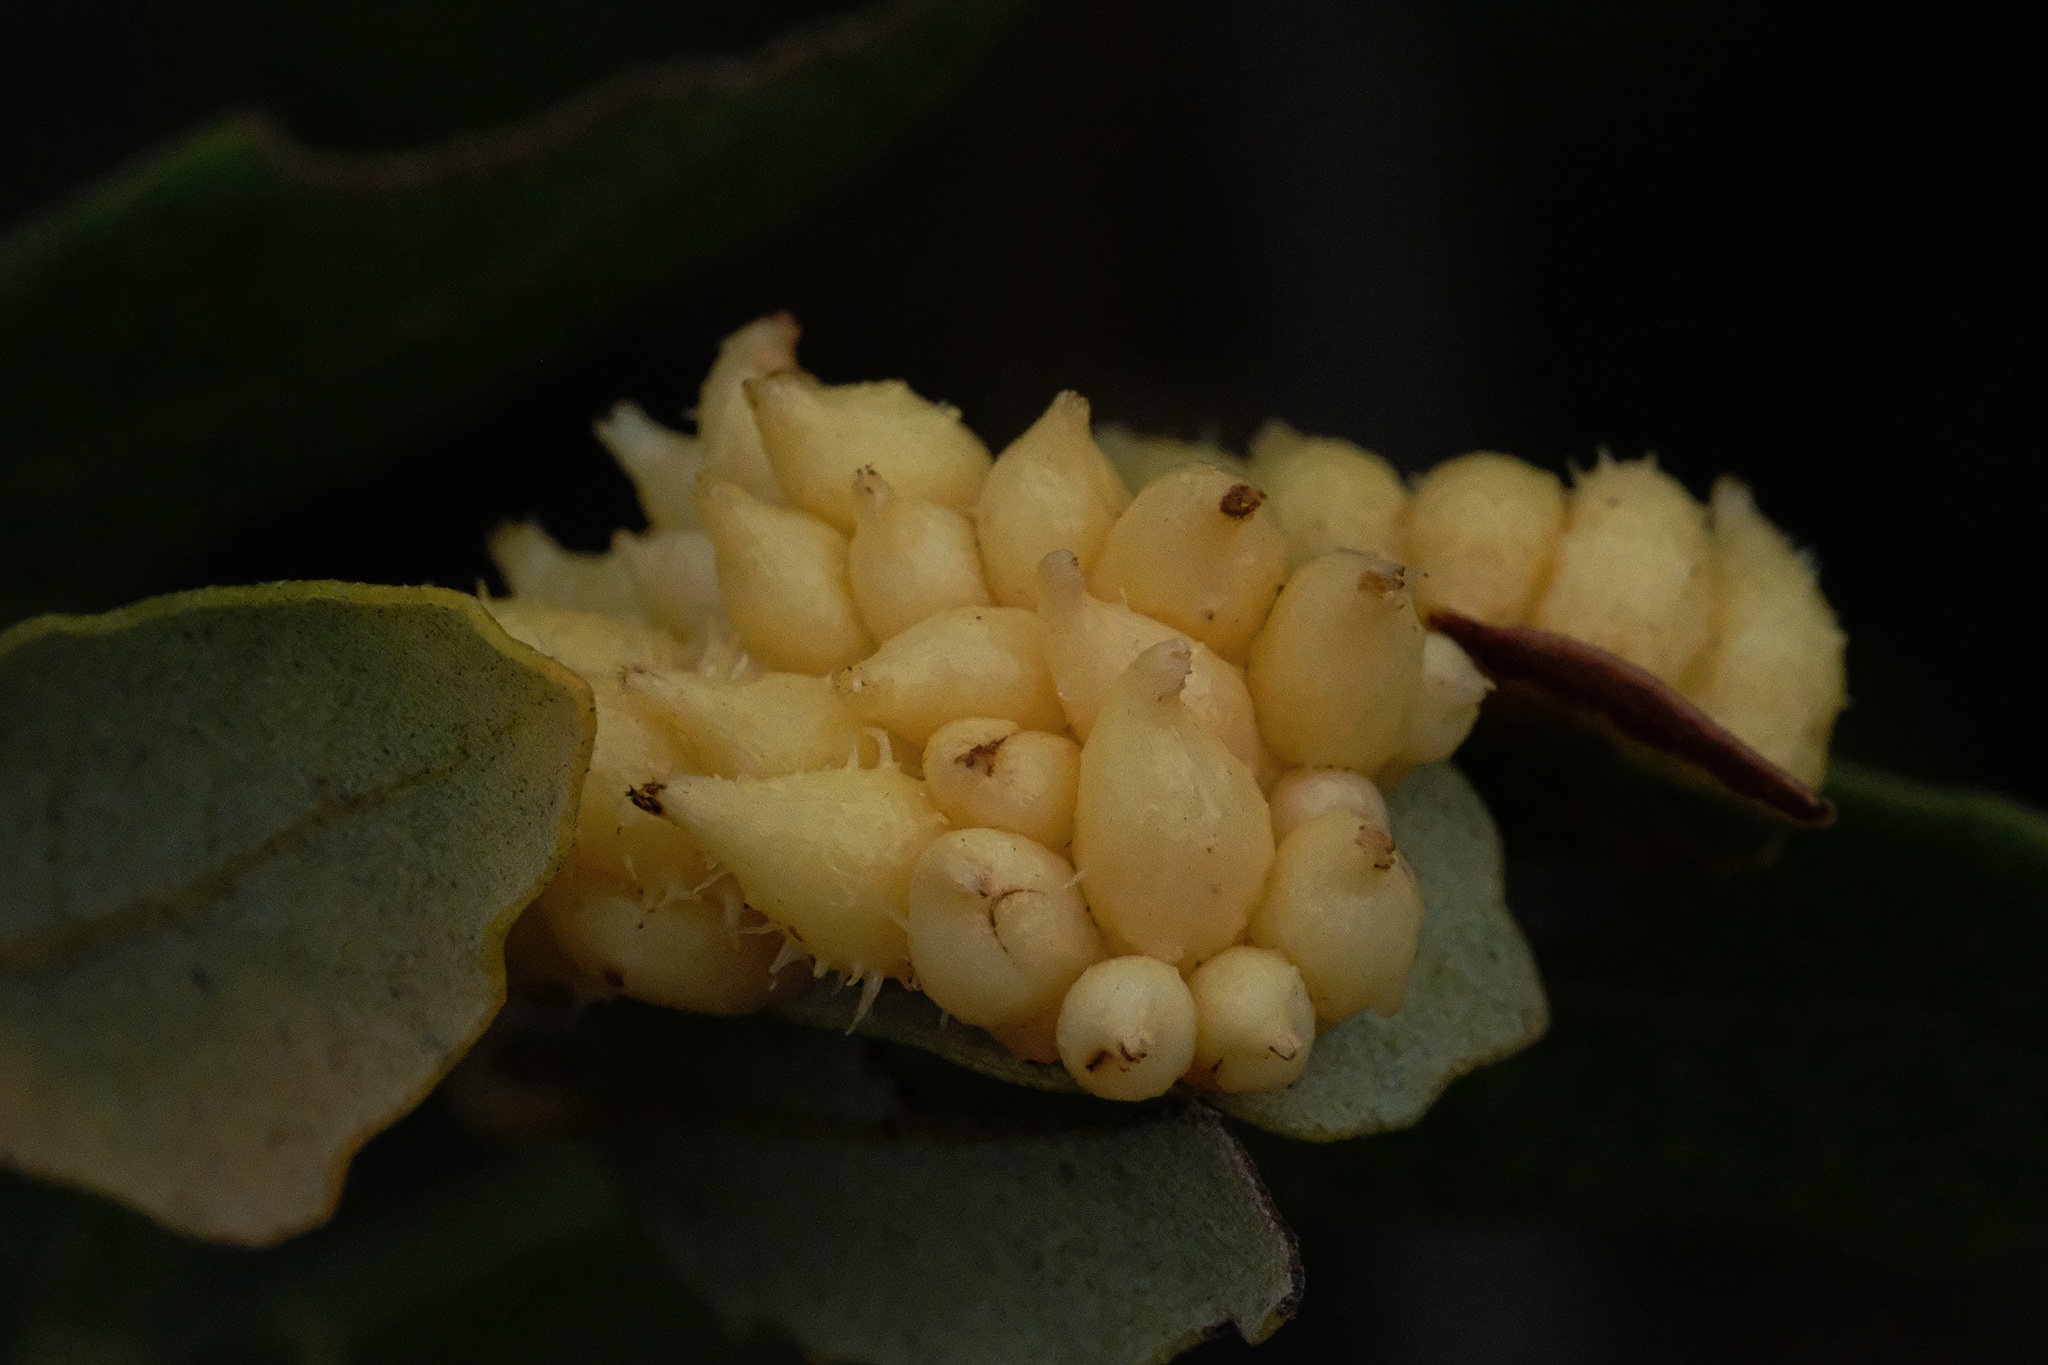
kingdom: Animalia
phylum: Arthropoda
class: Insecta
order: Hymenoptera
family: Cynipidae
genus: Andricus
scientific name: Andricus
